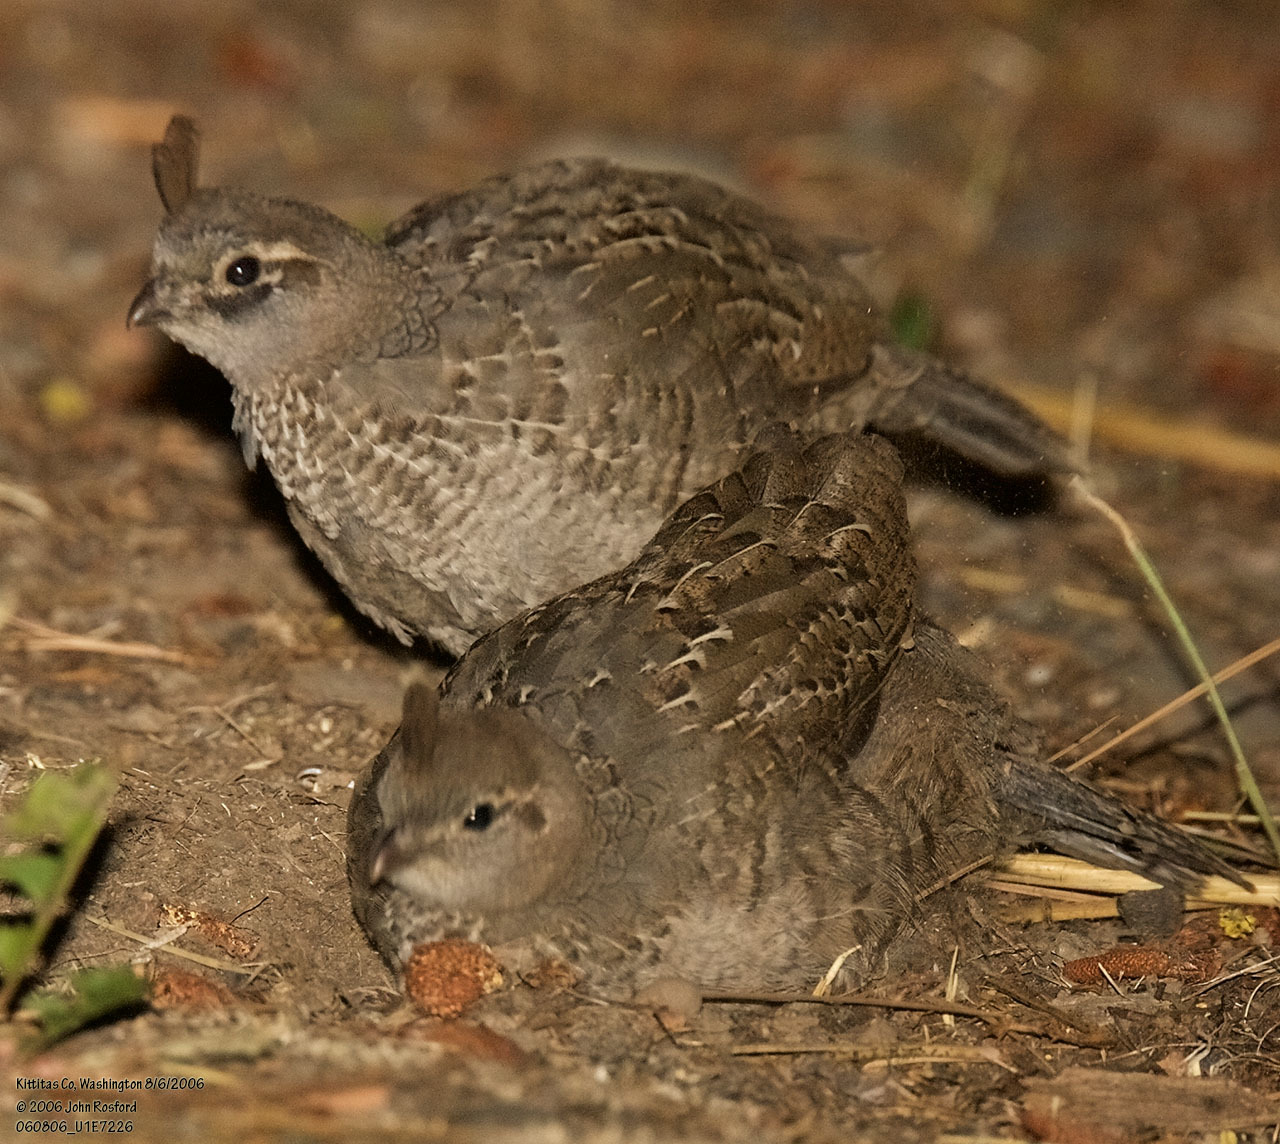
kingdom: Animalia
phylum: Chordata
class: Aves
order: Galliformes
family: Odontophoridae
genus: Callipepla
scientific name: Callipepla californica
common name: California quail
